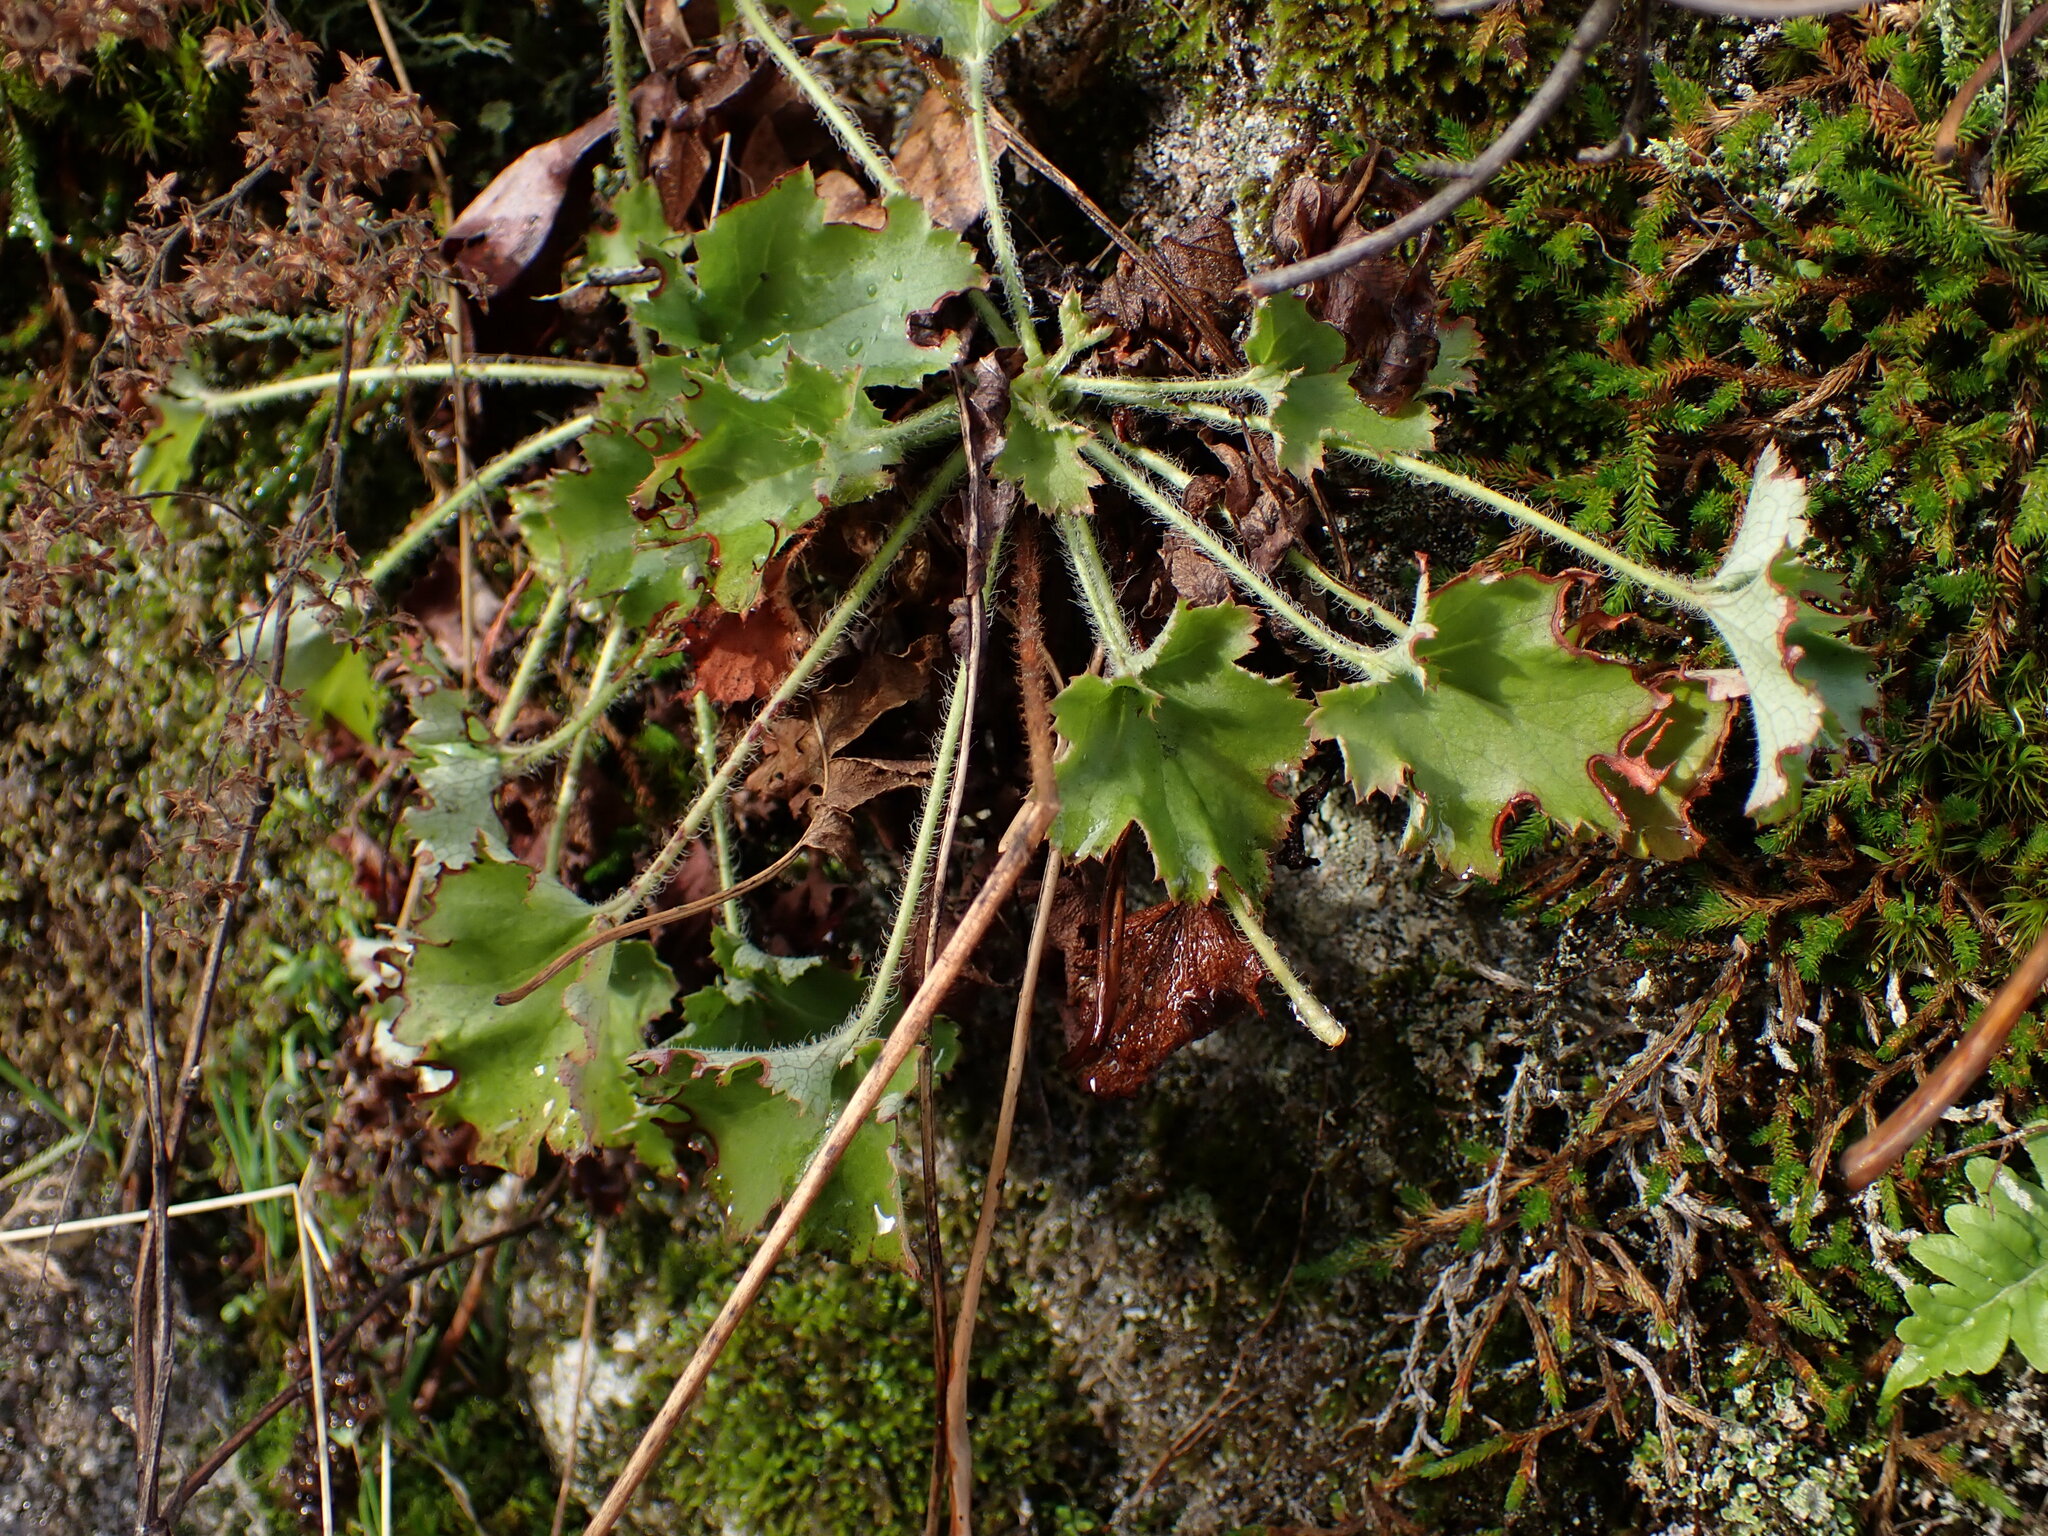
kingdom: Plantae
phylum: Tracheophyta
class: Magnoliopsida
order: Saxifragales
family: Saxifragaceae
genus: Heuchera
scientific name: Heuchera micrantha
